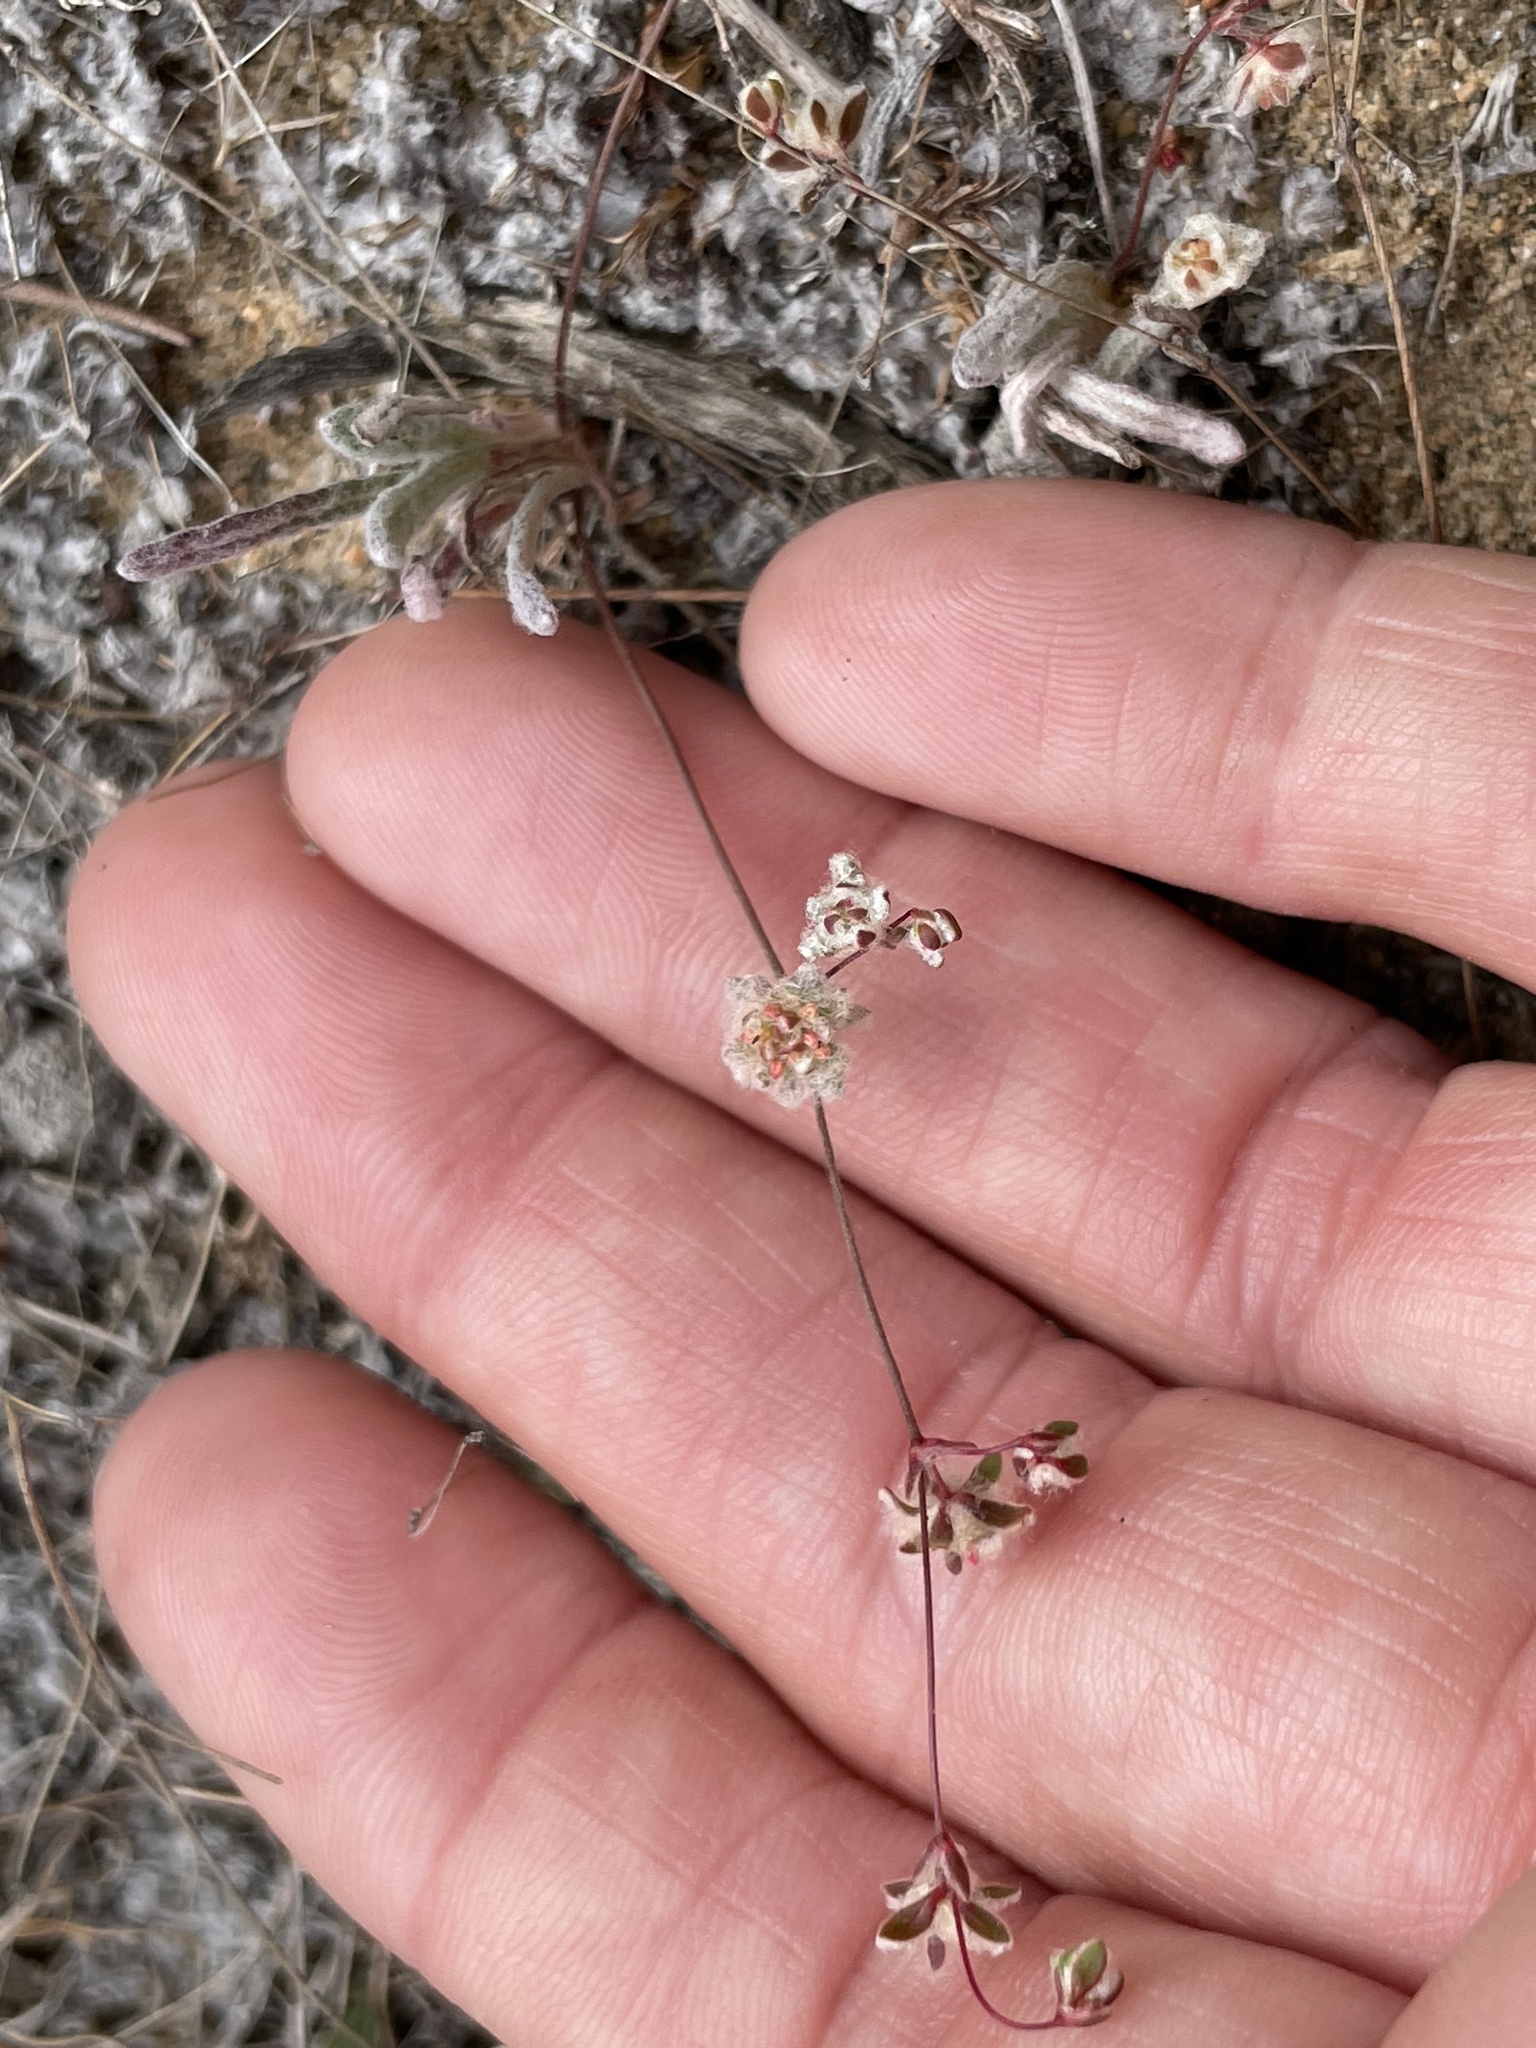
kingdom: Plantae
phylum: Tracheophyta
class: Magnoliopsida
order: Caryophyllales
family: Polygonaceae
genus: Nemacaulis
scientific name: Nemacaulis denudata
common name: Woolly-heads
